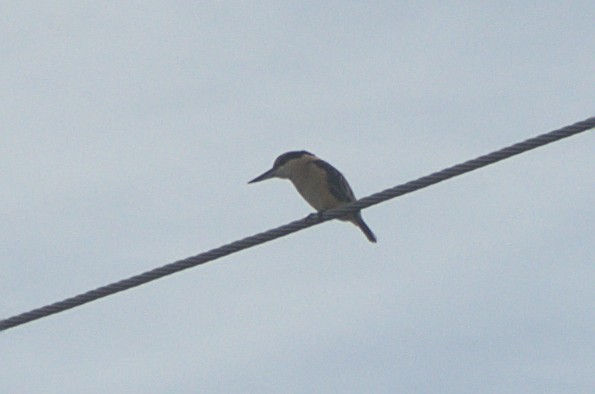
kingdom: Animalia
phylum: Chordata
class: Aves
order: Coraciiformes
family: Alcedinidae
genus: Todiramphus
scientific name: Todiramphus sanctus
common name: Sacred kingfisher
